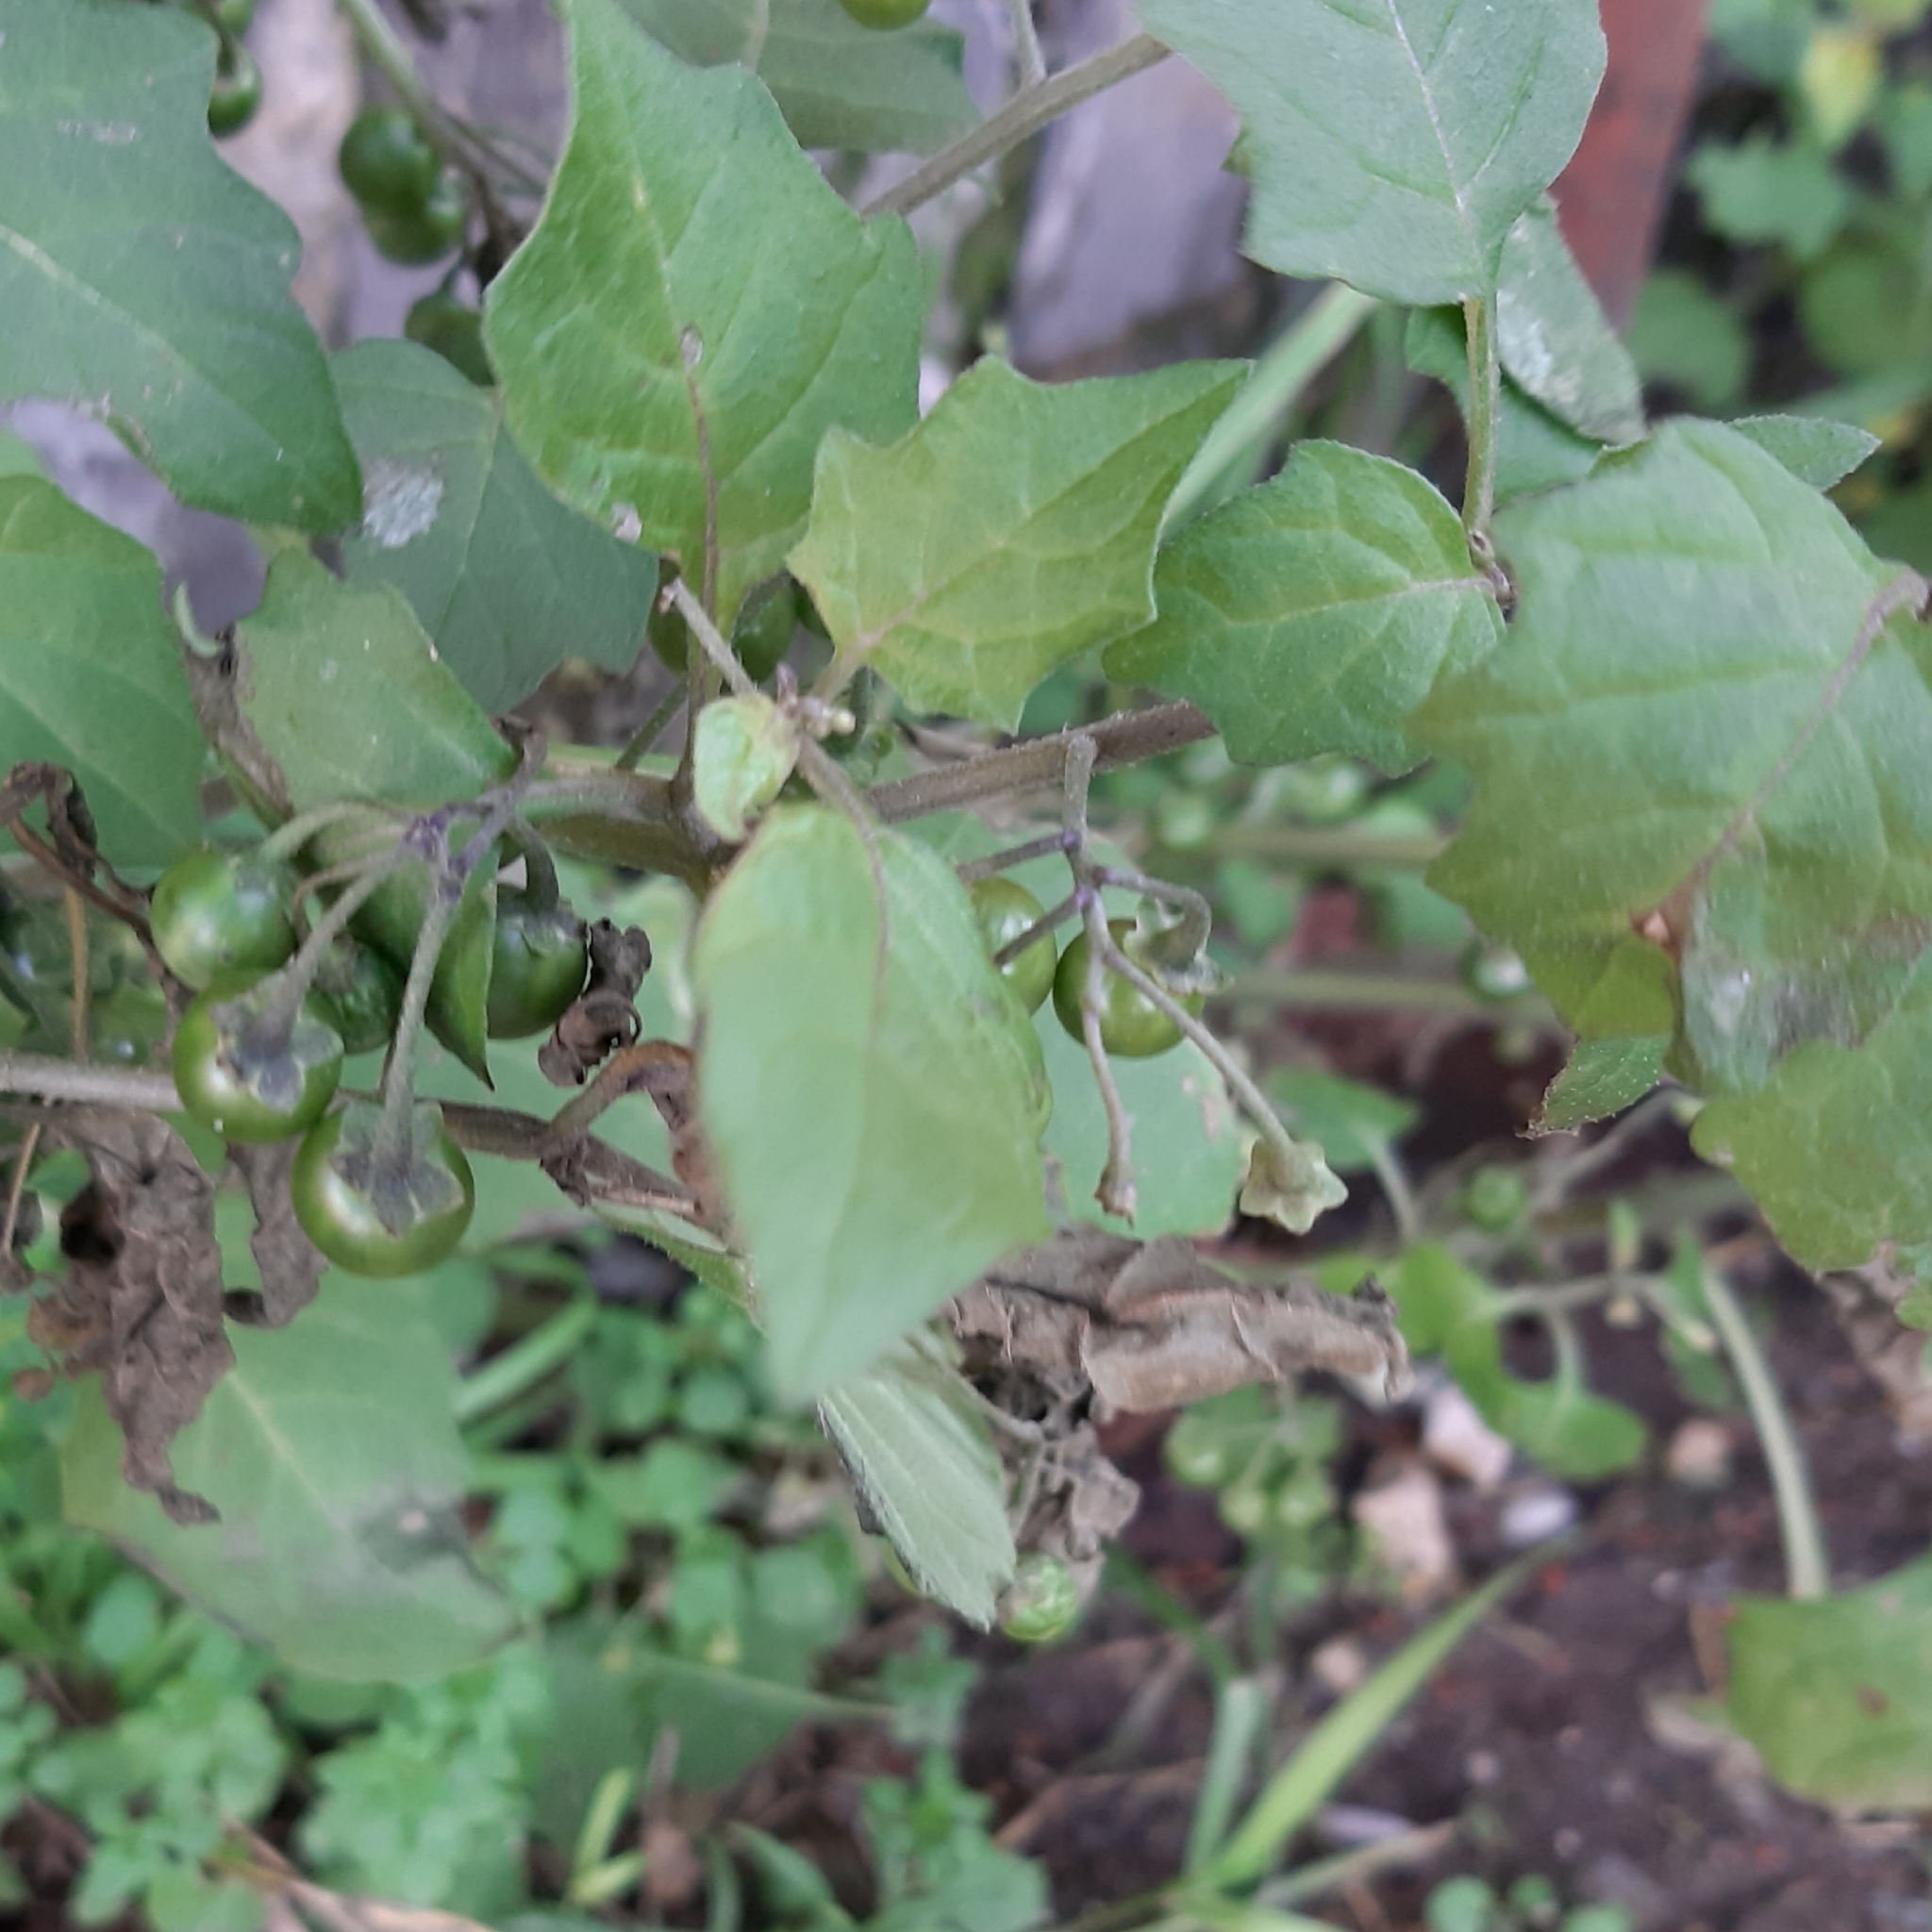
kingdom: Plantae
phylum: Tracheophyta
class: Magnoliopsida
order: Solanales
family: Solanaceae
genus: Solanum
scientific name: Solanum nigrum
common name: Black nightshade
